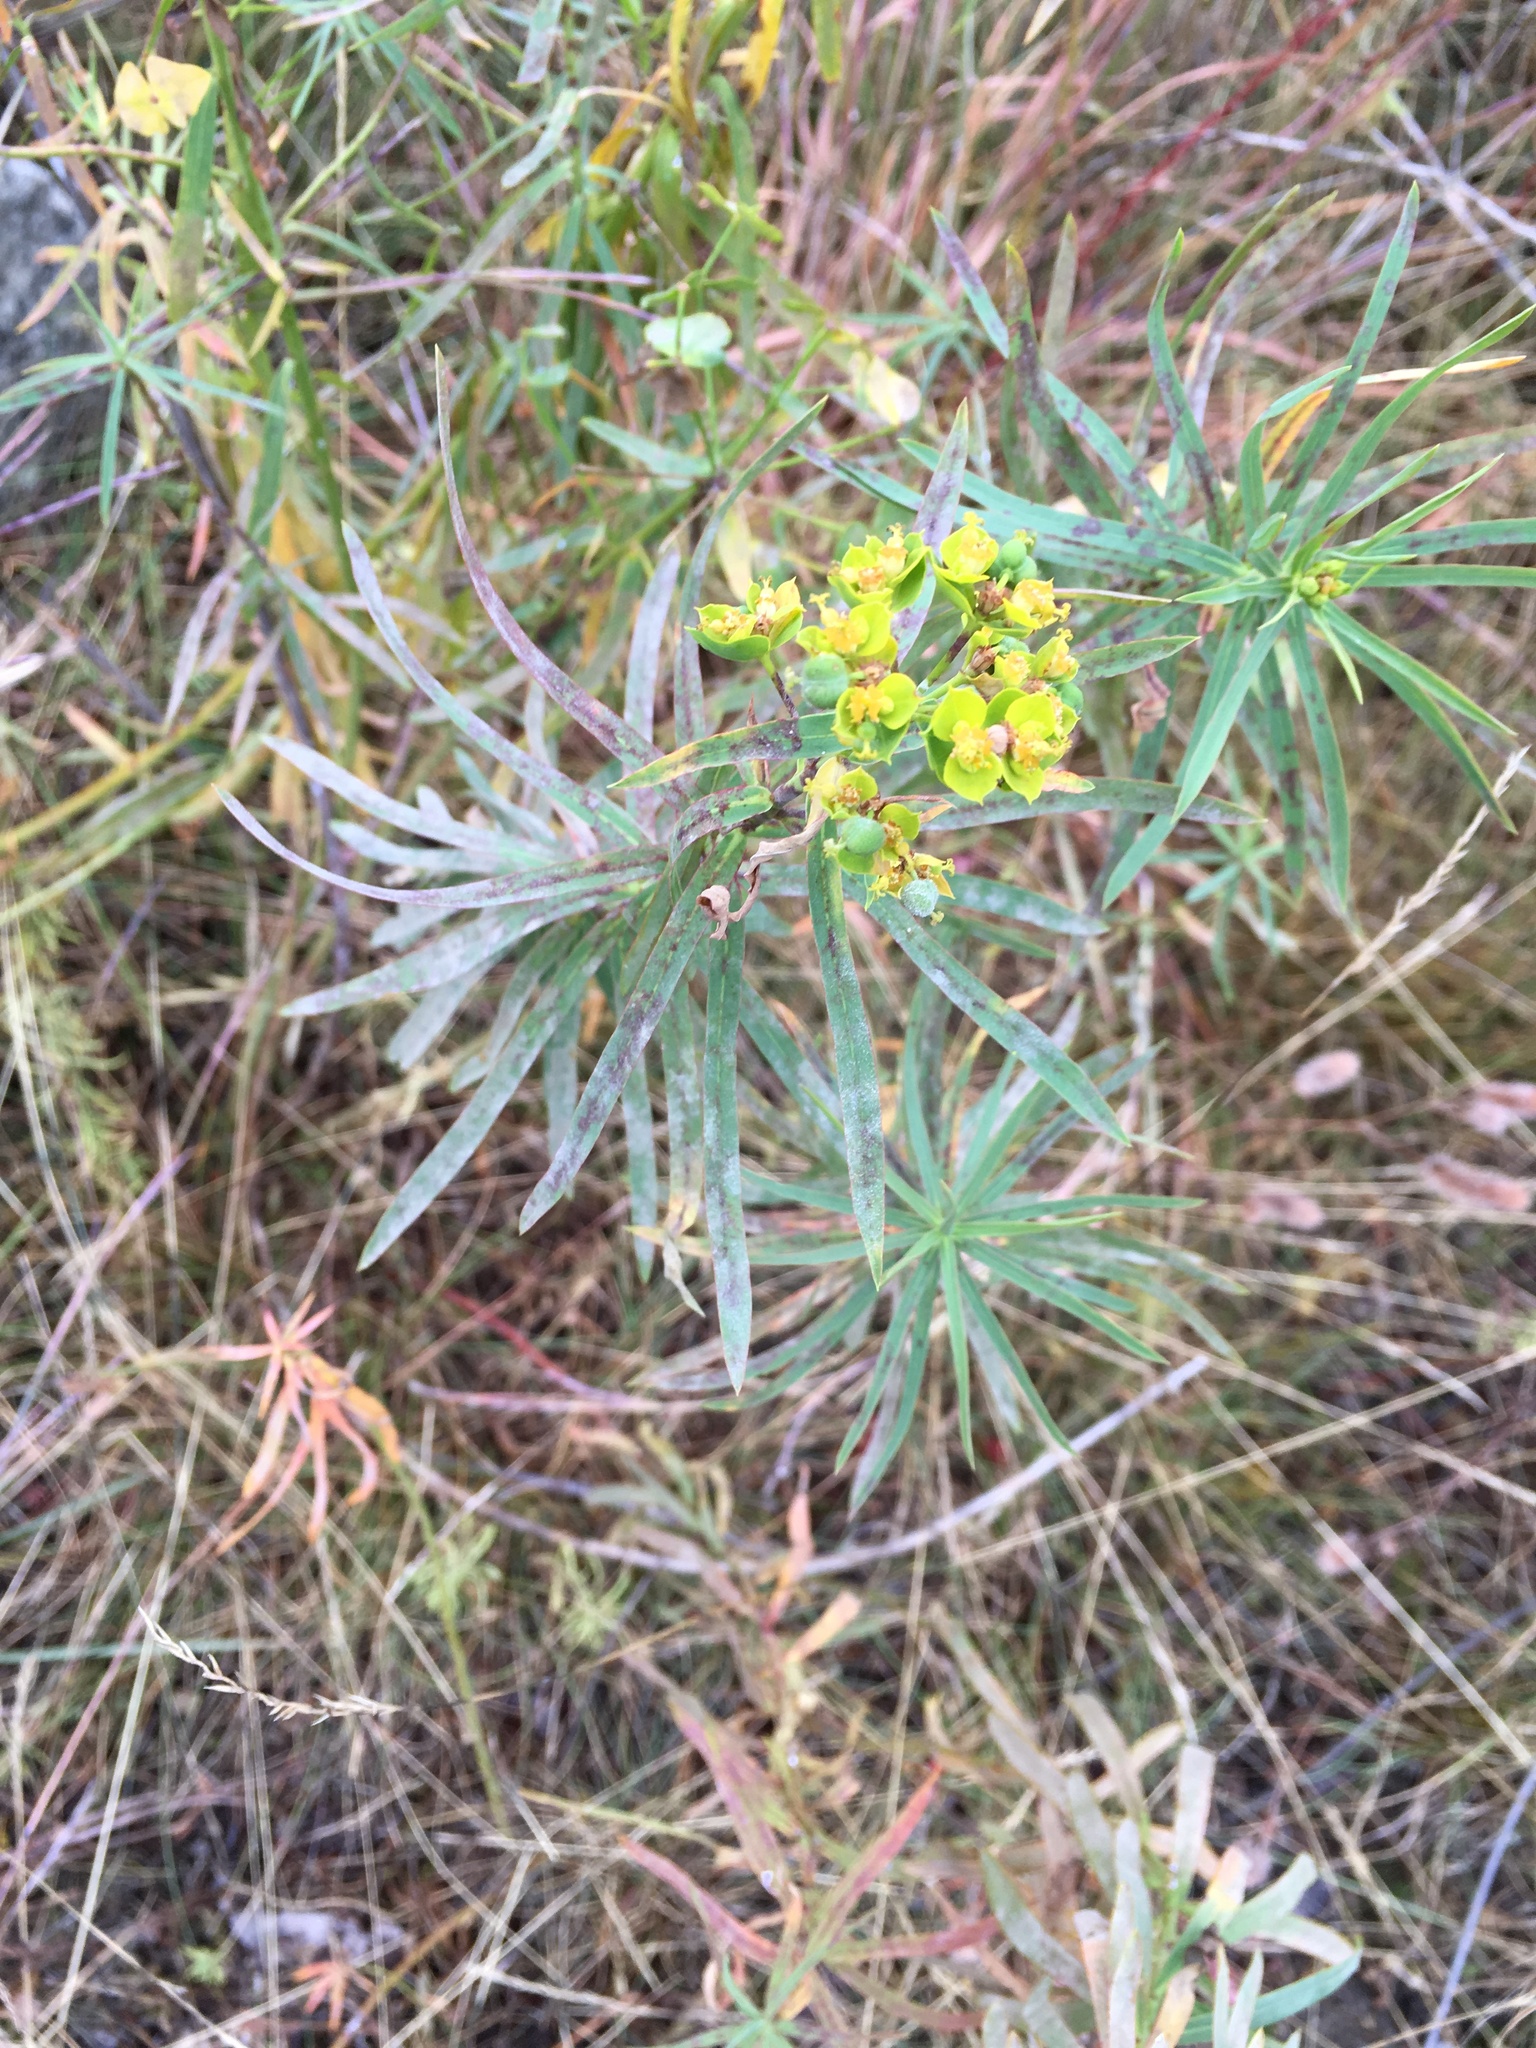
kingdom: Plantae
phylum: Tracheophyta
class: Magnoliopsida
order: Malpighiales
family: Euphorbiaceae
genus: Euphorbia
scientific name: Euphorbia cyparissias
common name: Cypress spurge
